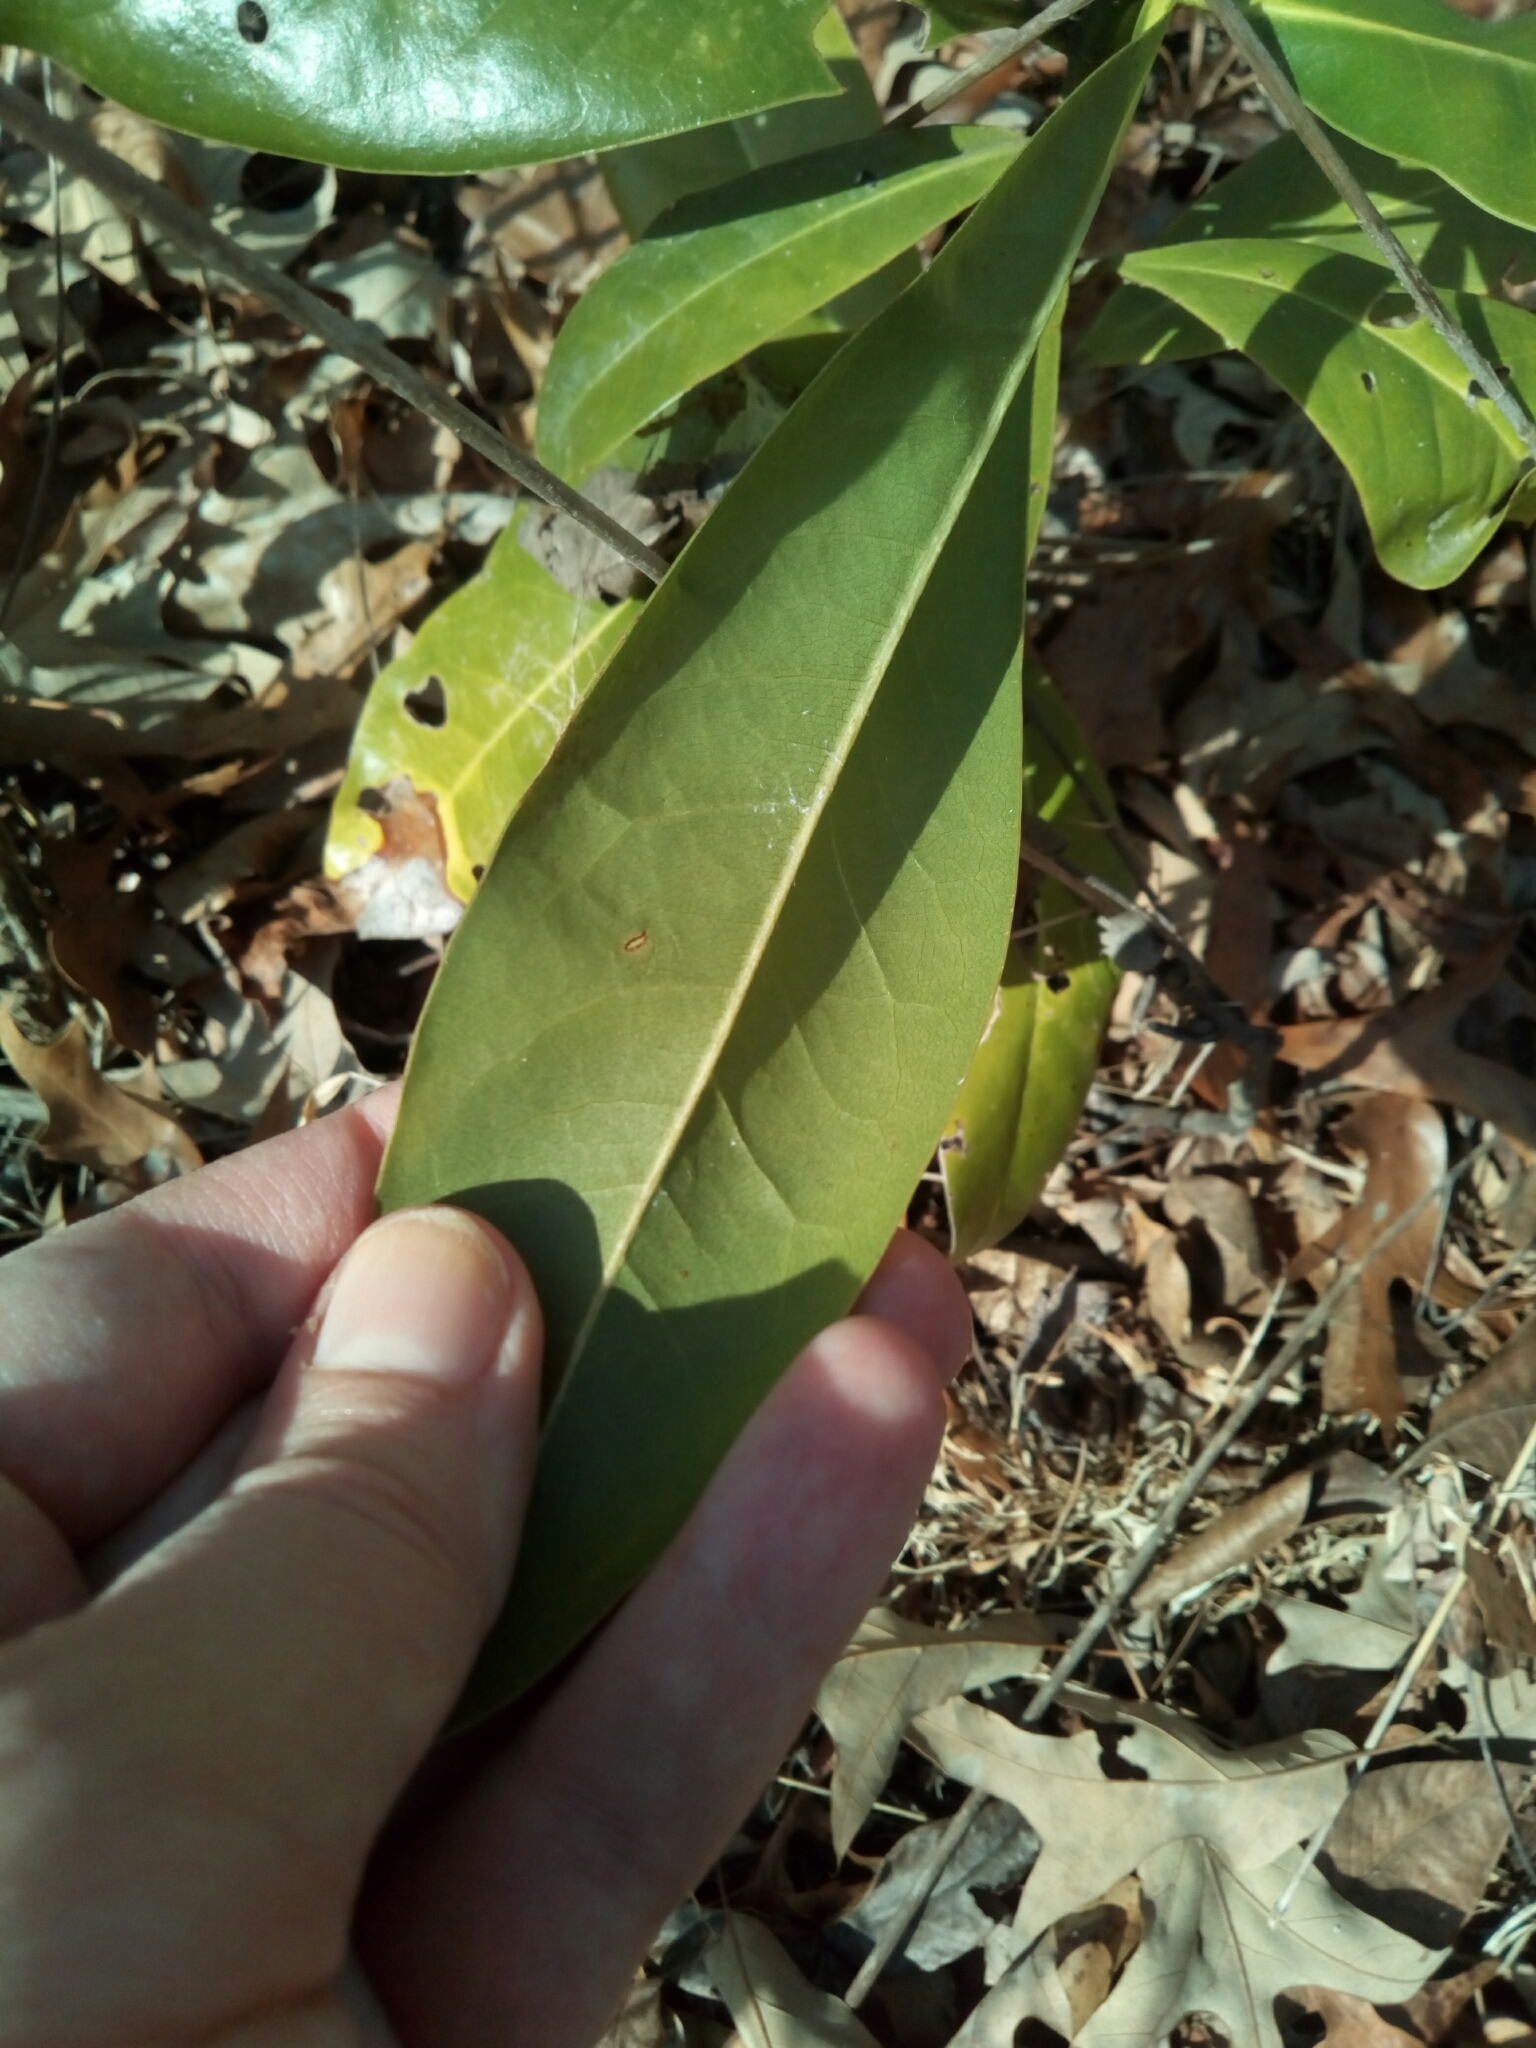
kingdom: Plantae
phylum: Tracheophyta
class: Magnoliopsida
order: Magnoliales
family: Magnoliaceae
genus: Magnolia
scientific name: Magnolia grandiflora
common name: Southern magnolia
